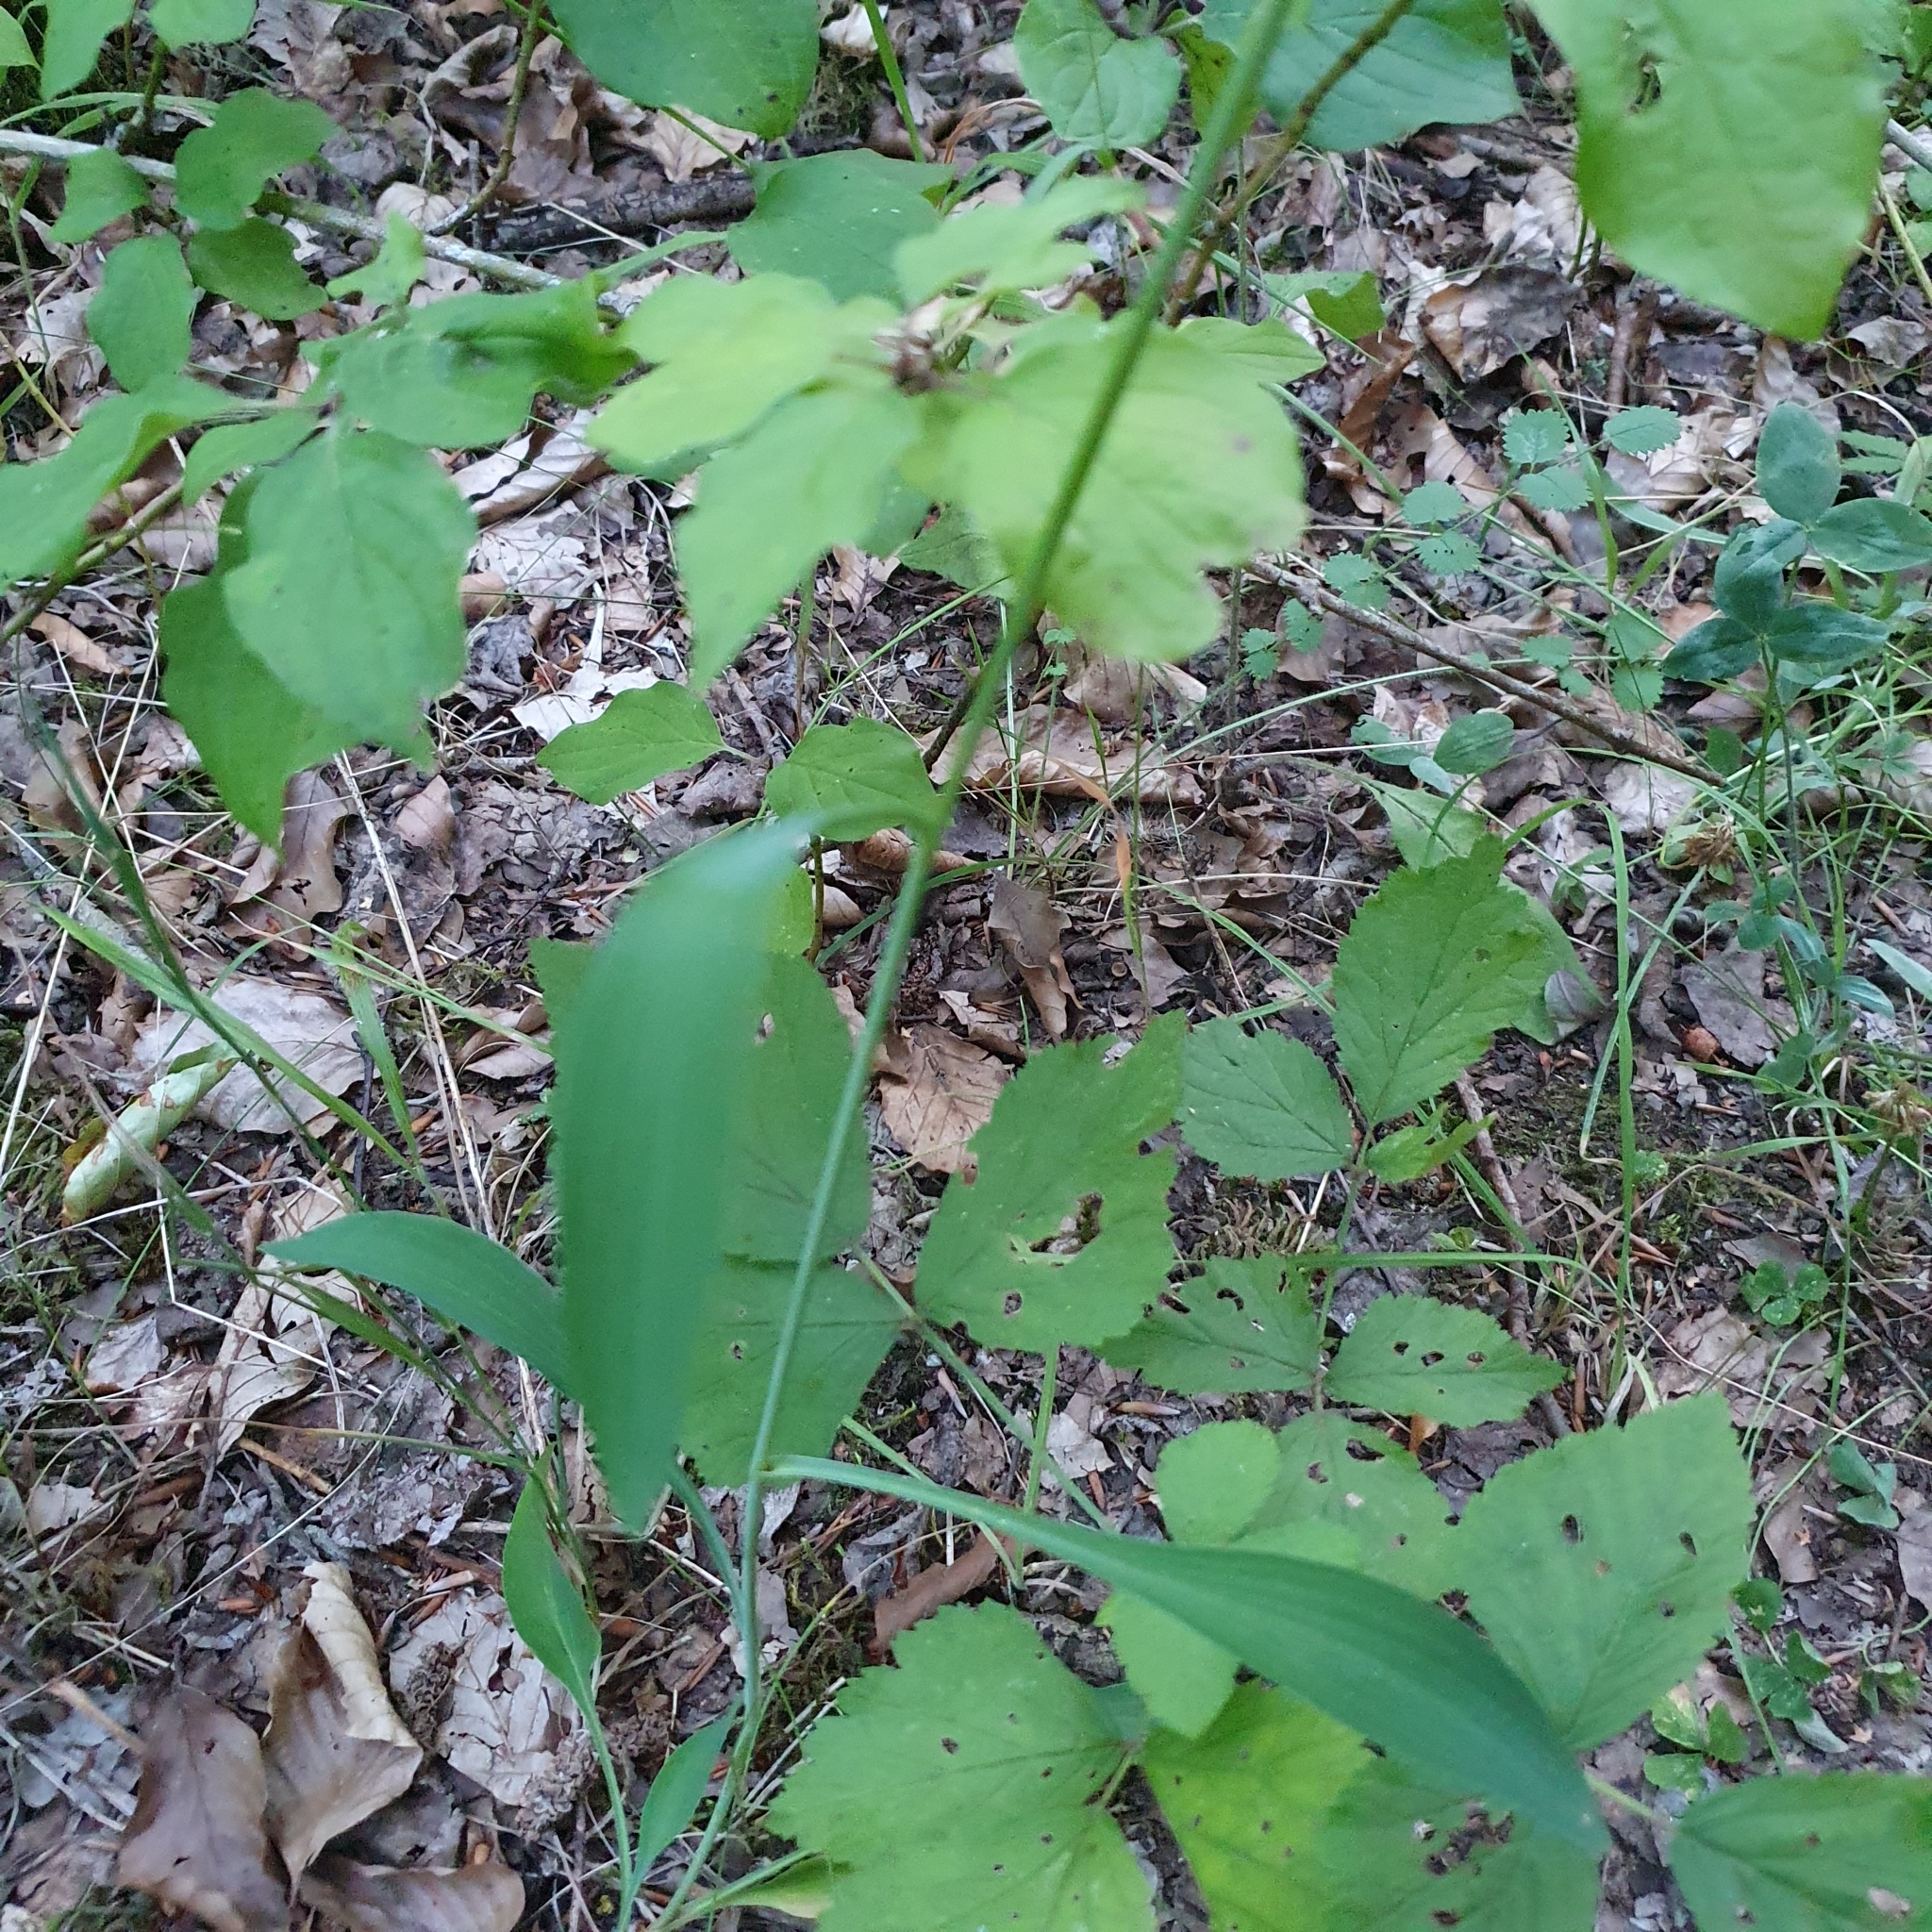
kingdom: Plantae
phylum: Tracheophyta
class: Magnoliopsida
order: Apiales
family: Apiaceae
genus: Bupleurum
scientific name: Bupleurum falcatum
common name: Sickle-leaved hare's-ear
